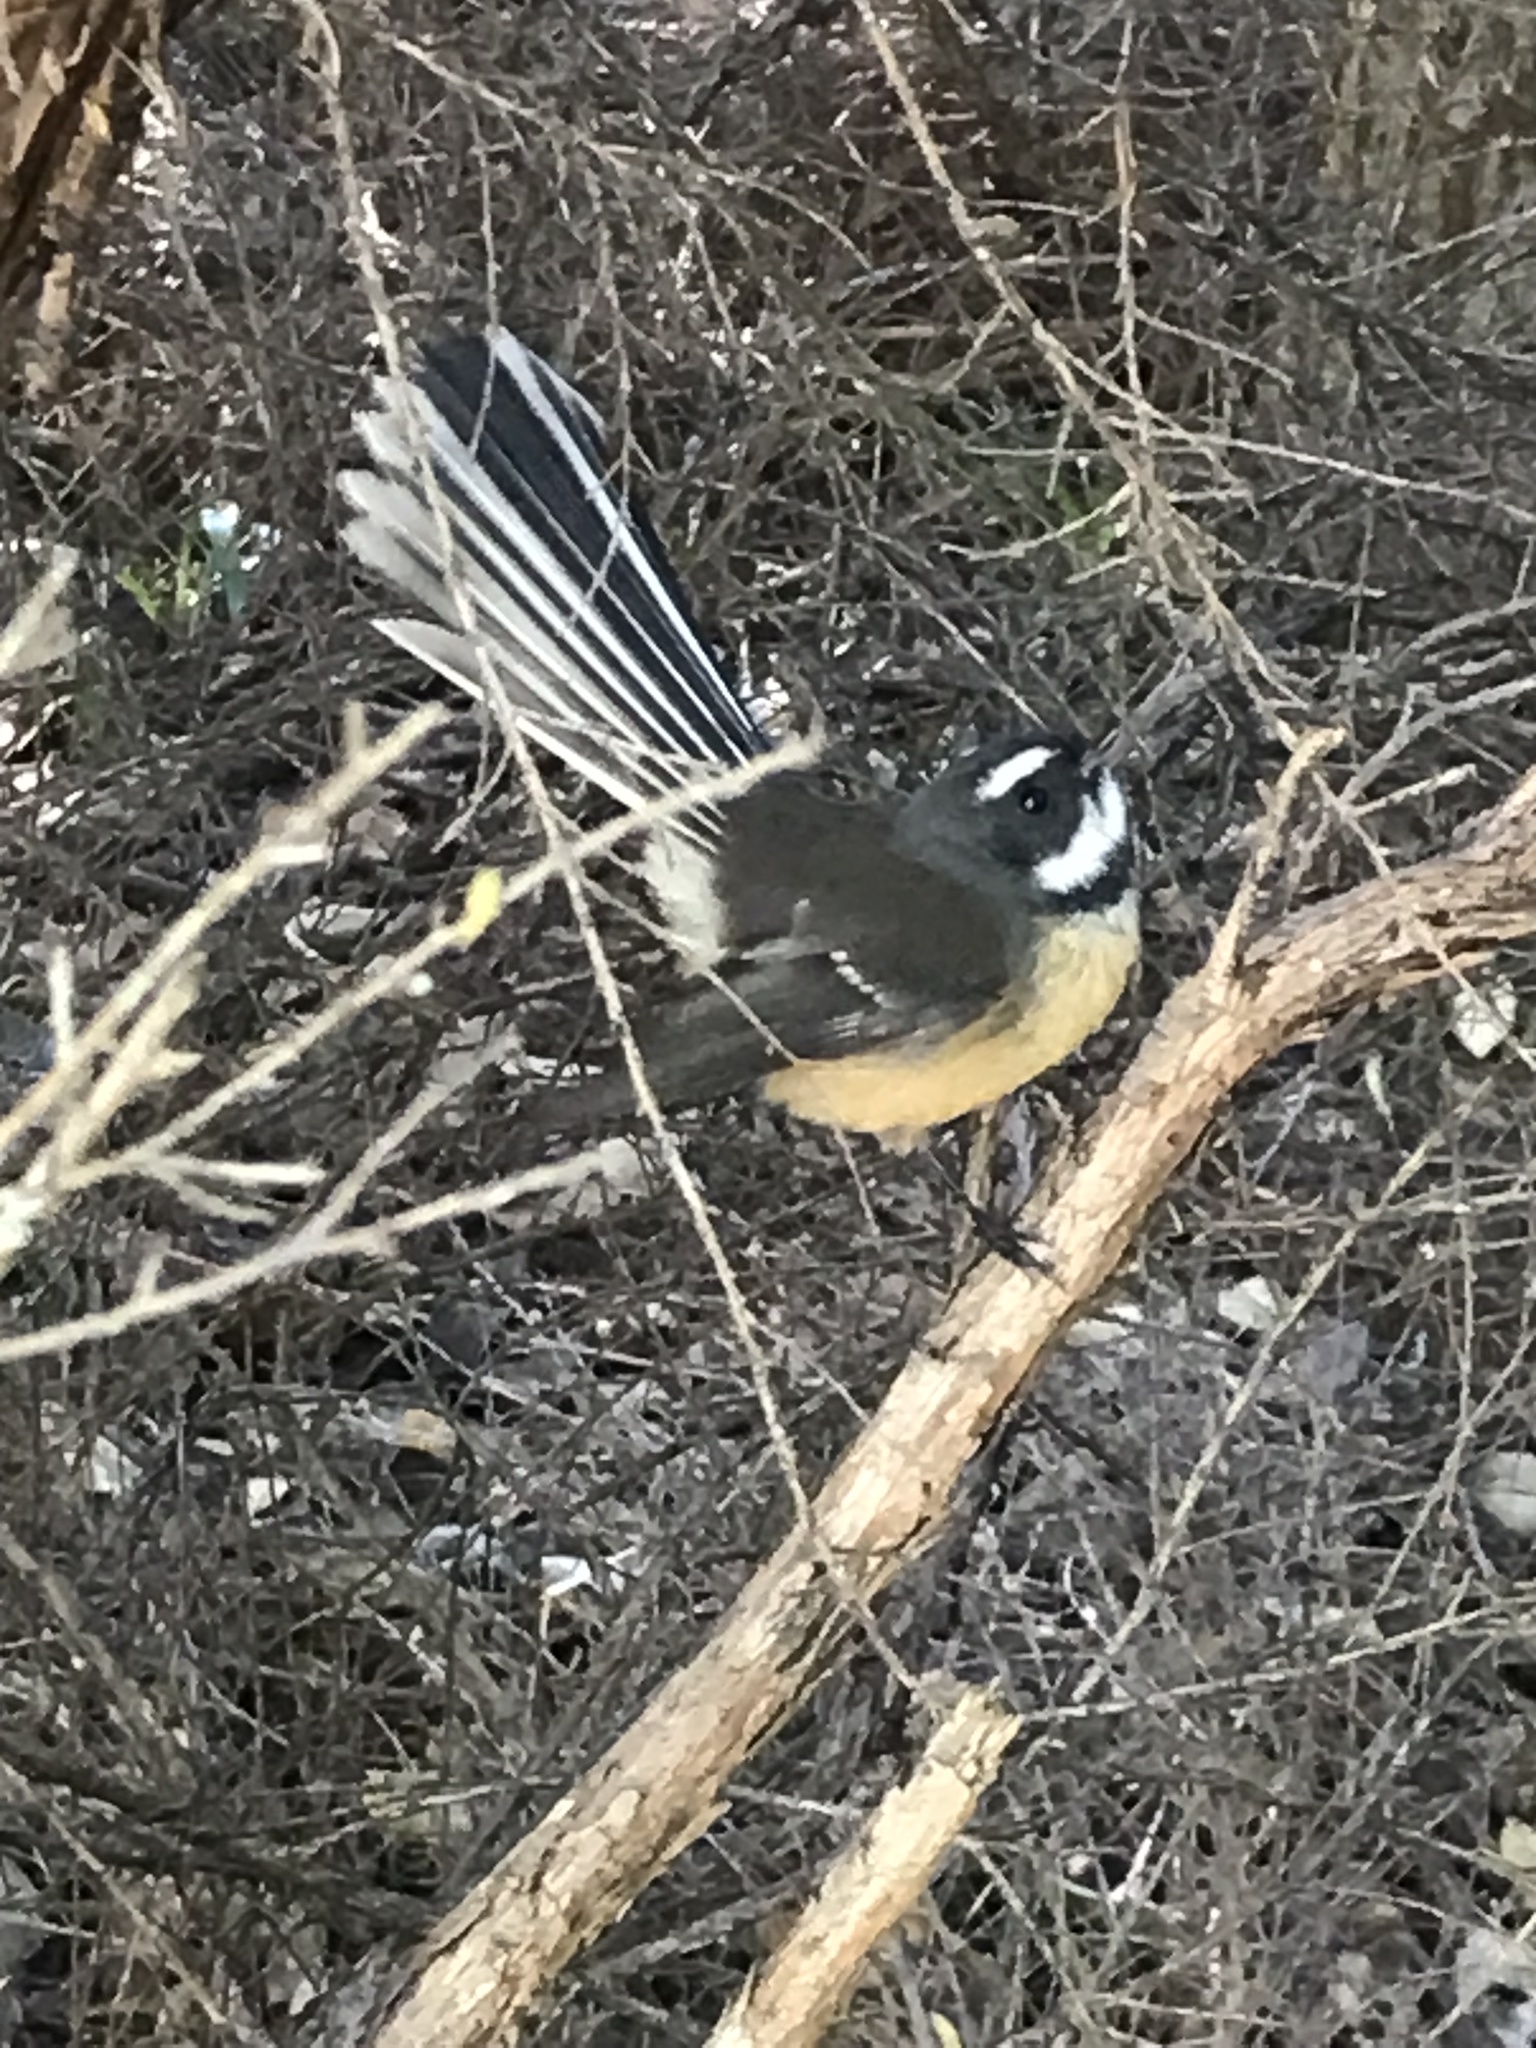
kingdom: Animalia
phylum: Chordata
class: Aves
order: Passeriformes
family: Rhipiduridae
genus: Rhipidura
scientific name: Rhipidura fuliginosa
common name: New zealand fantail
